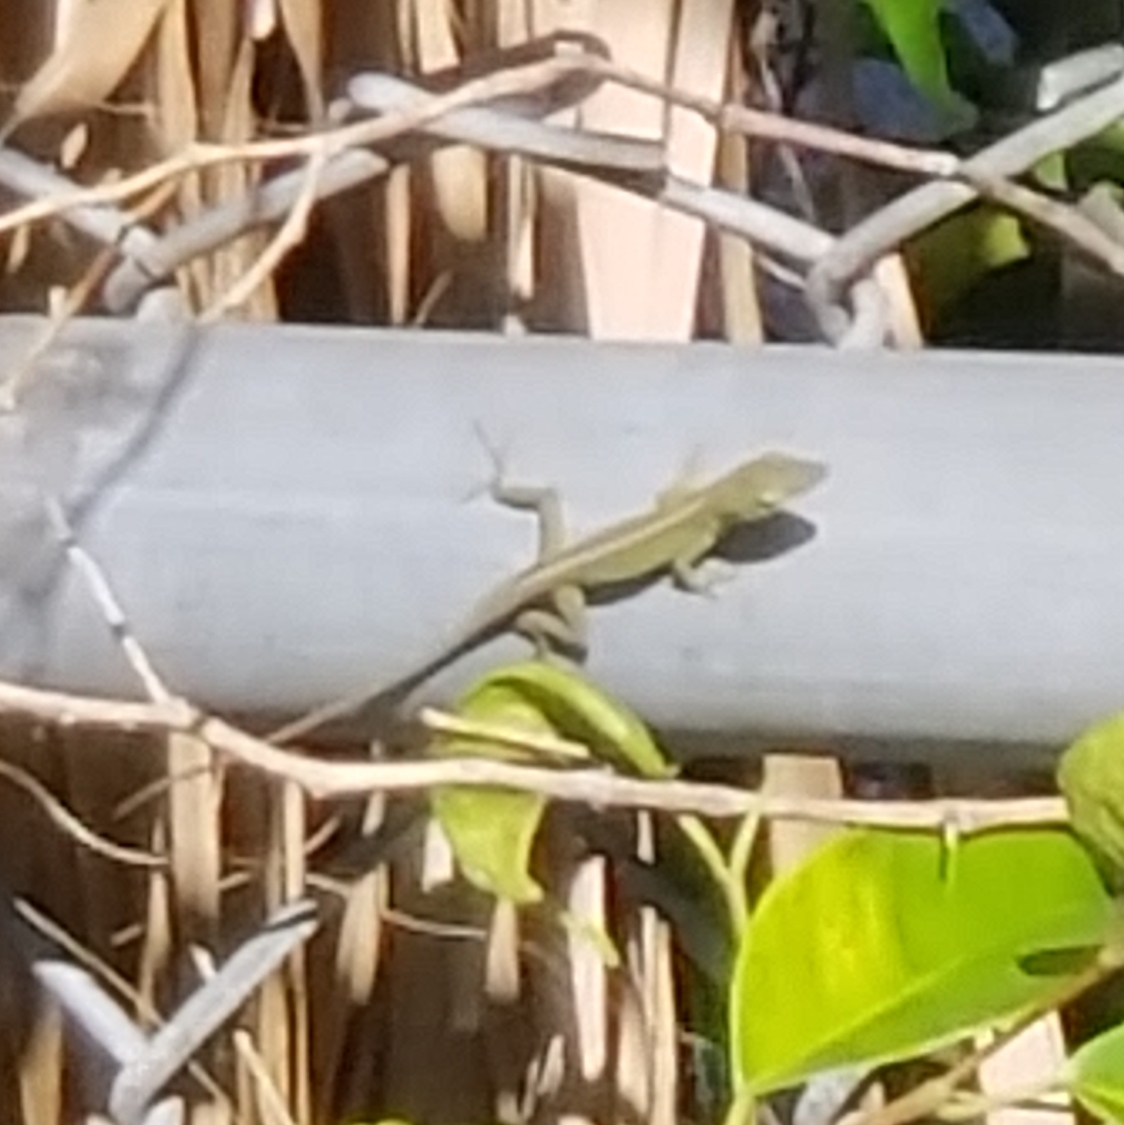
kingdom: Animalia
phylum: Chordata
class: Squamata
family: Dactyloidae
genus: Anolis
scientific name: Anolis carolinensis
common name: Green anole
